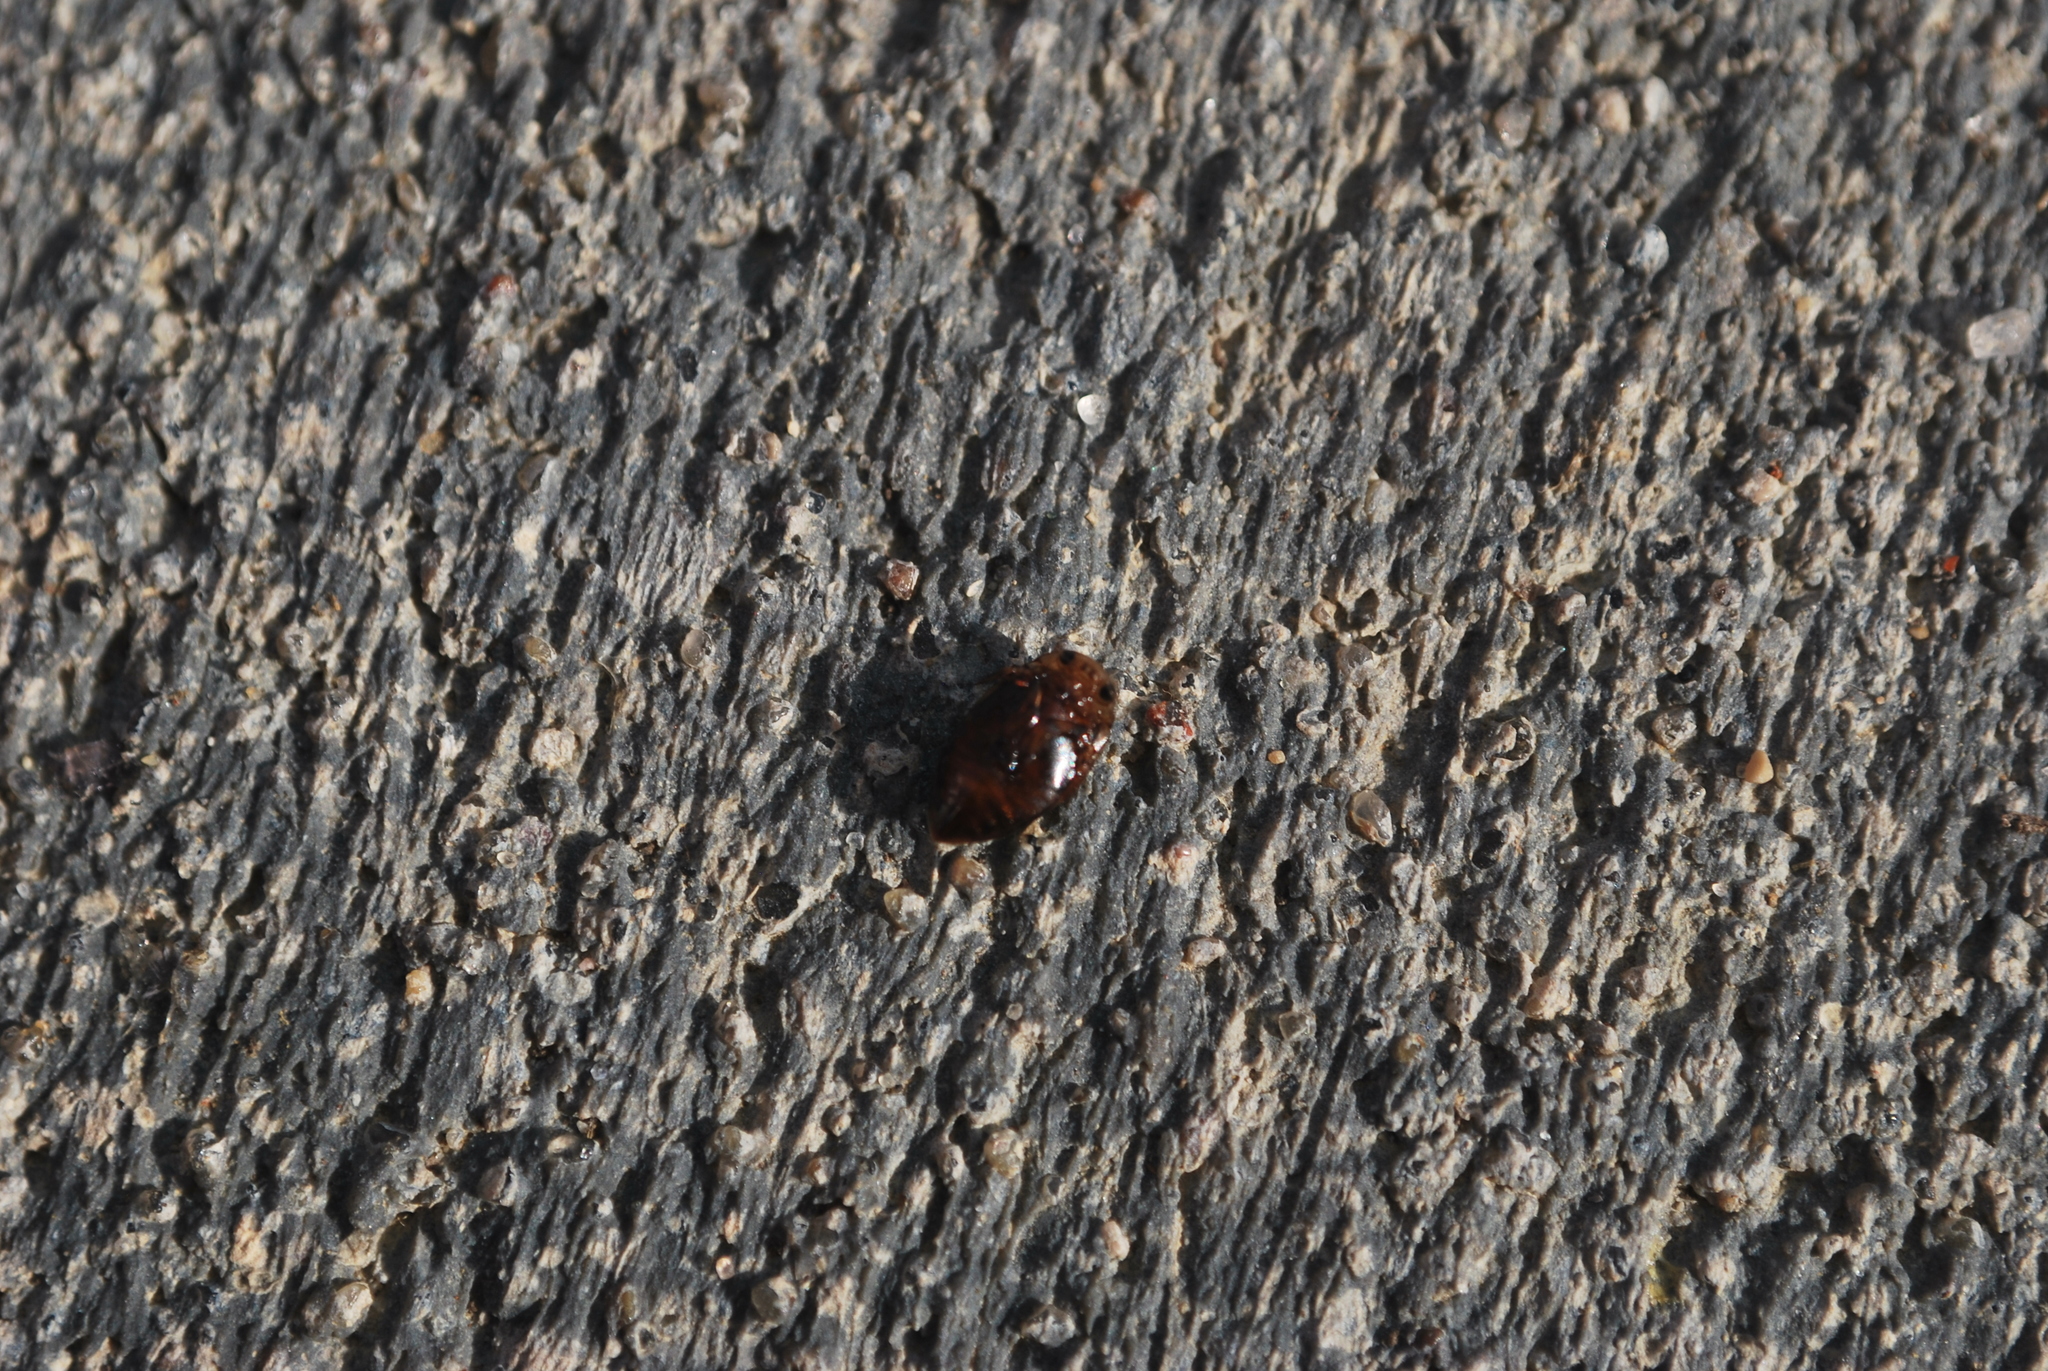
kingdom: Animalia
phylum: Arthropoda
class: Insecta
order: Coleoptera
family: Dytiscidae
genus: Laccophilus
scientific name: Laccophilus fasciatus
